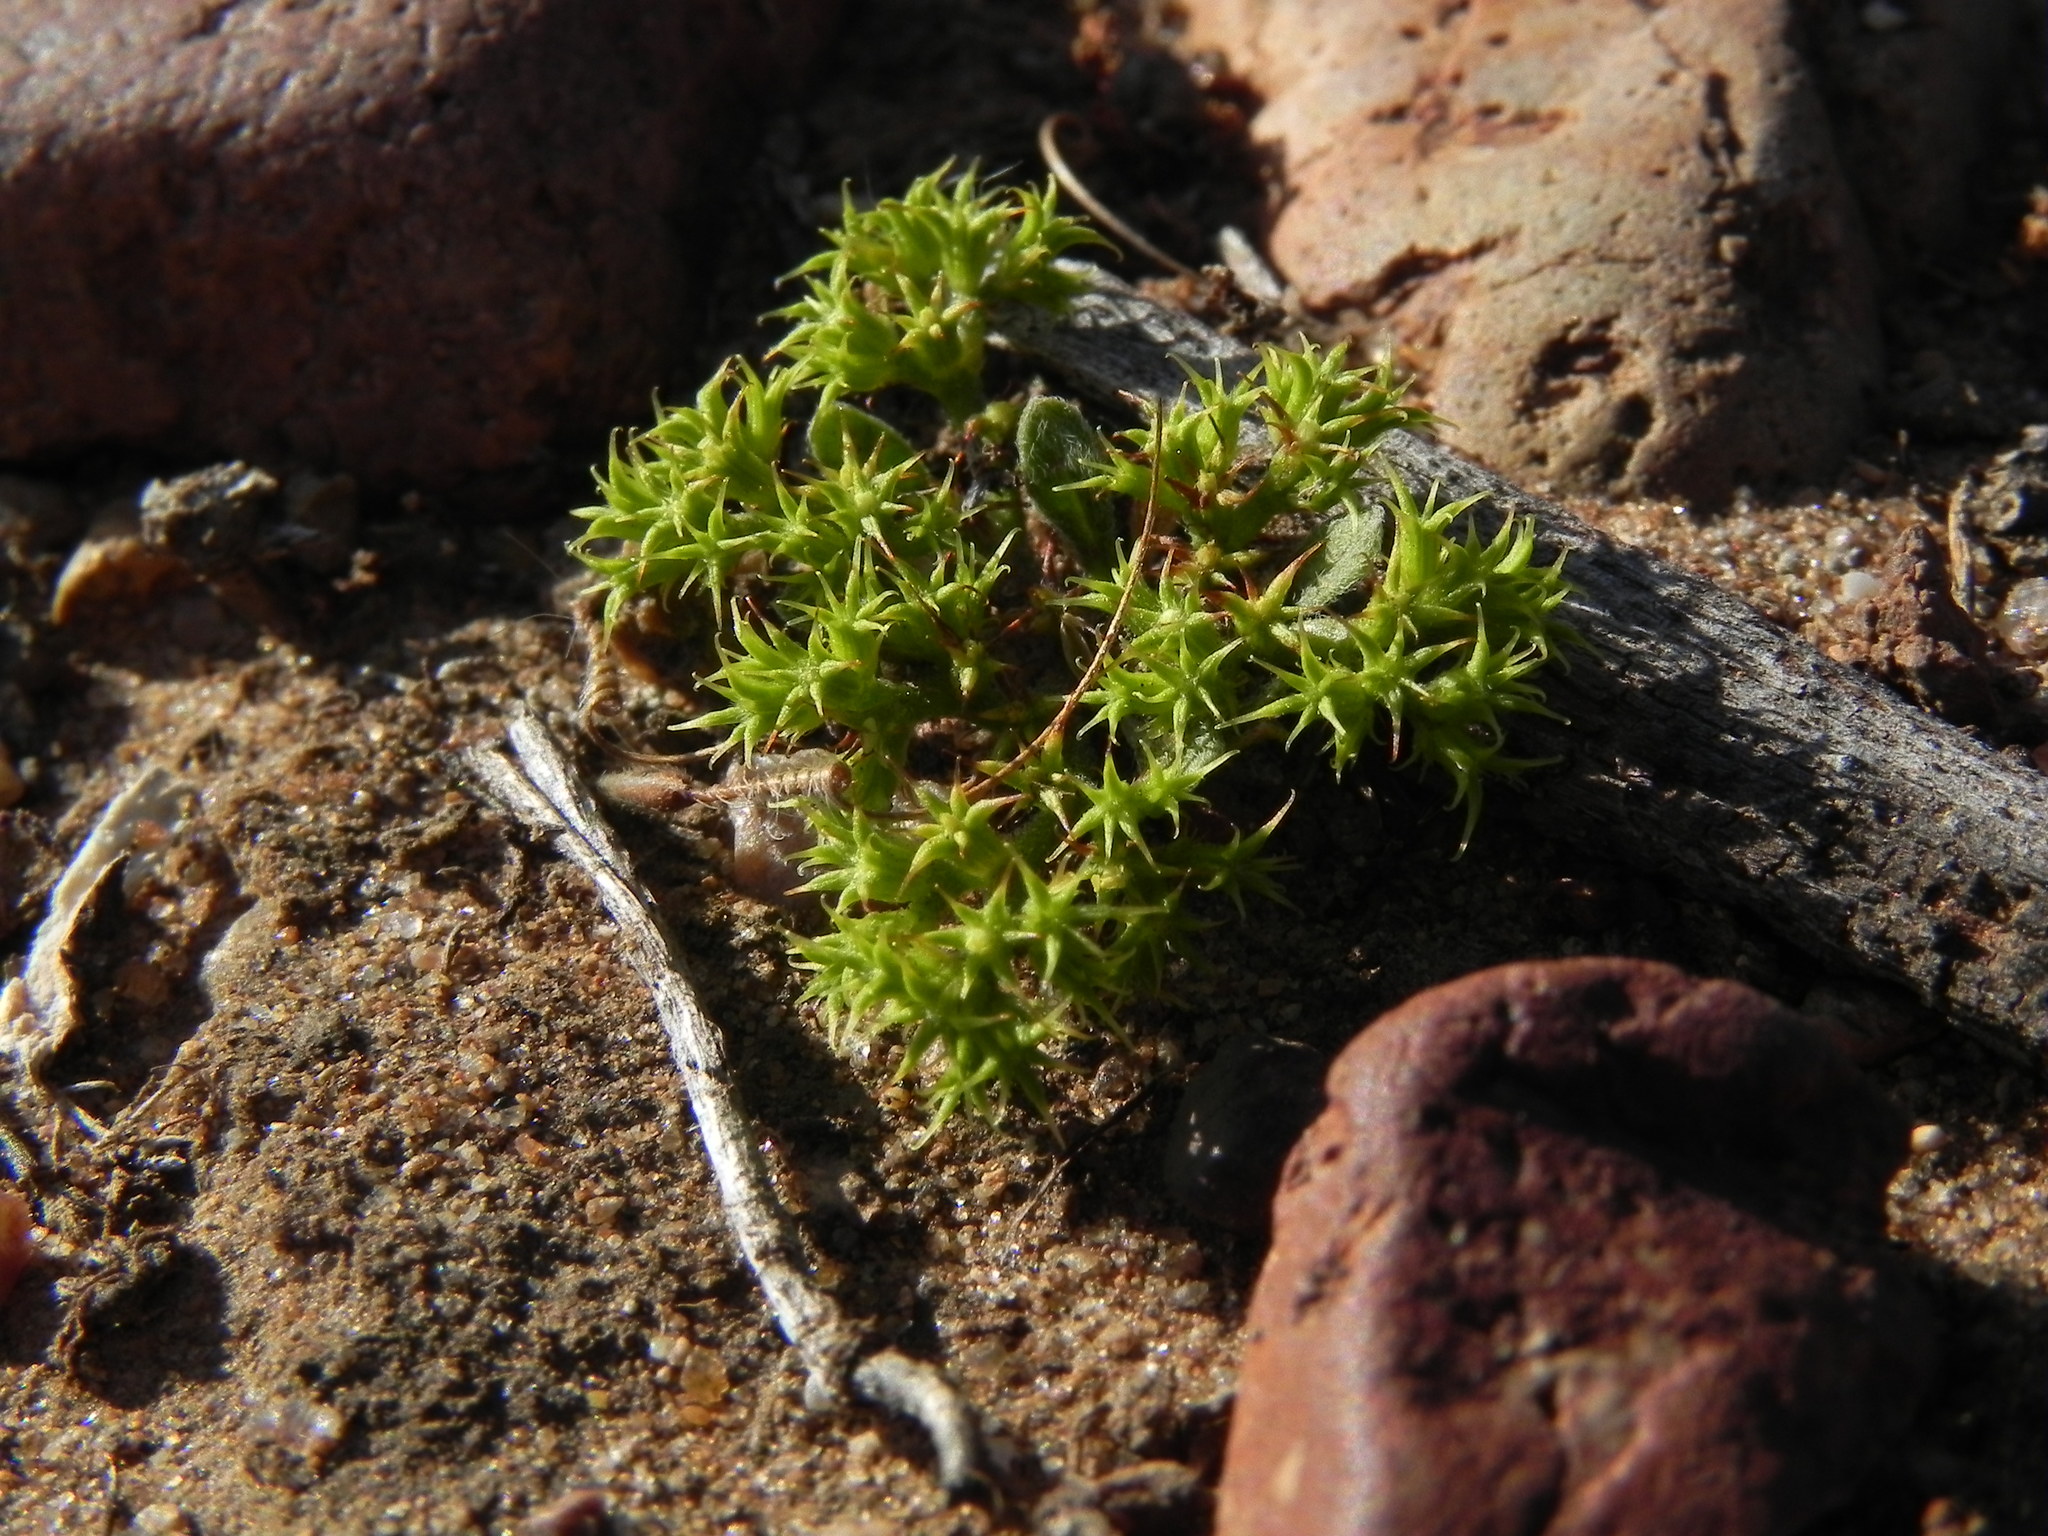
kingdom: Plantae
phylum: Tracheophyta
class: Magnoliopsida
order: Caryophyllales
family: Polygonaceae
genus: Chorizanthe
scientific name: Chorizanthe procumbens
